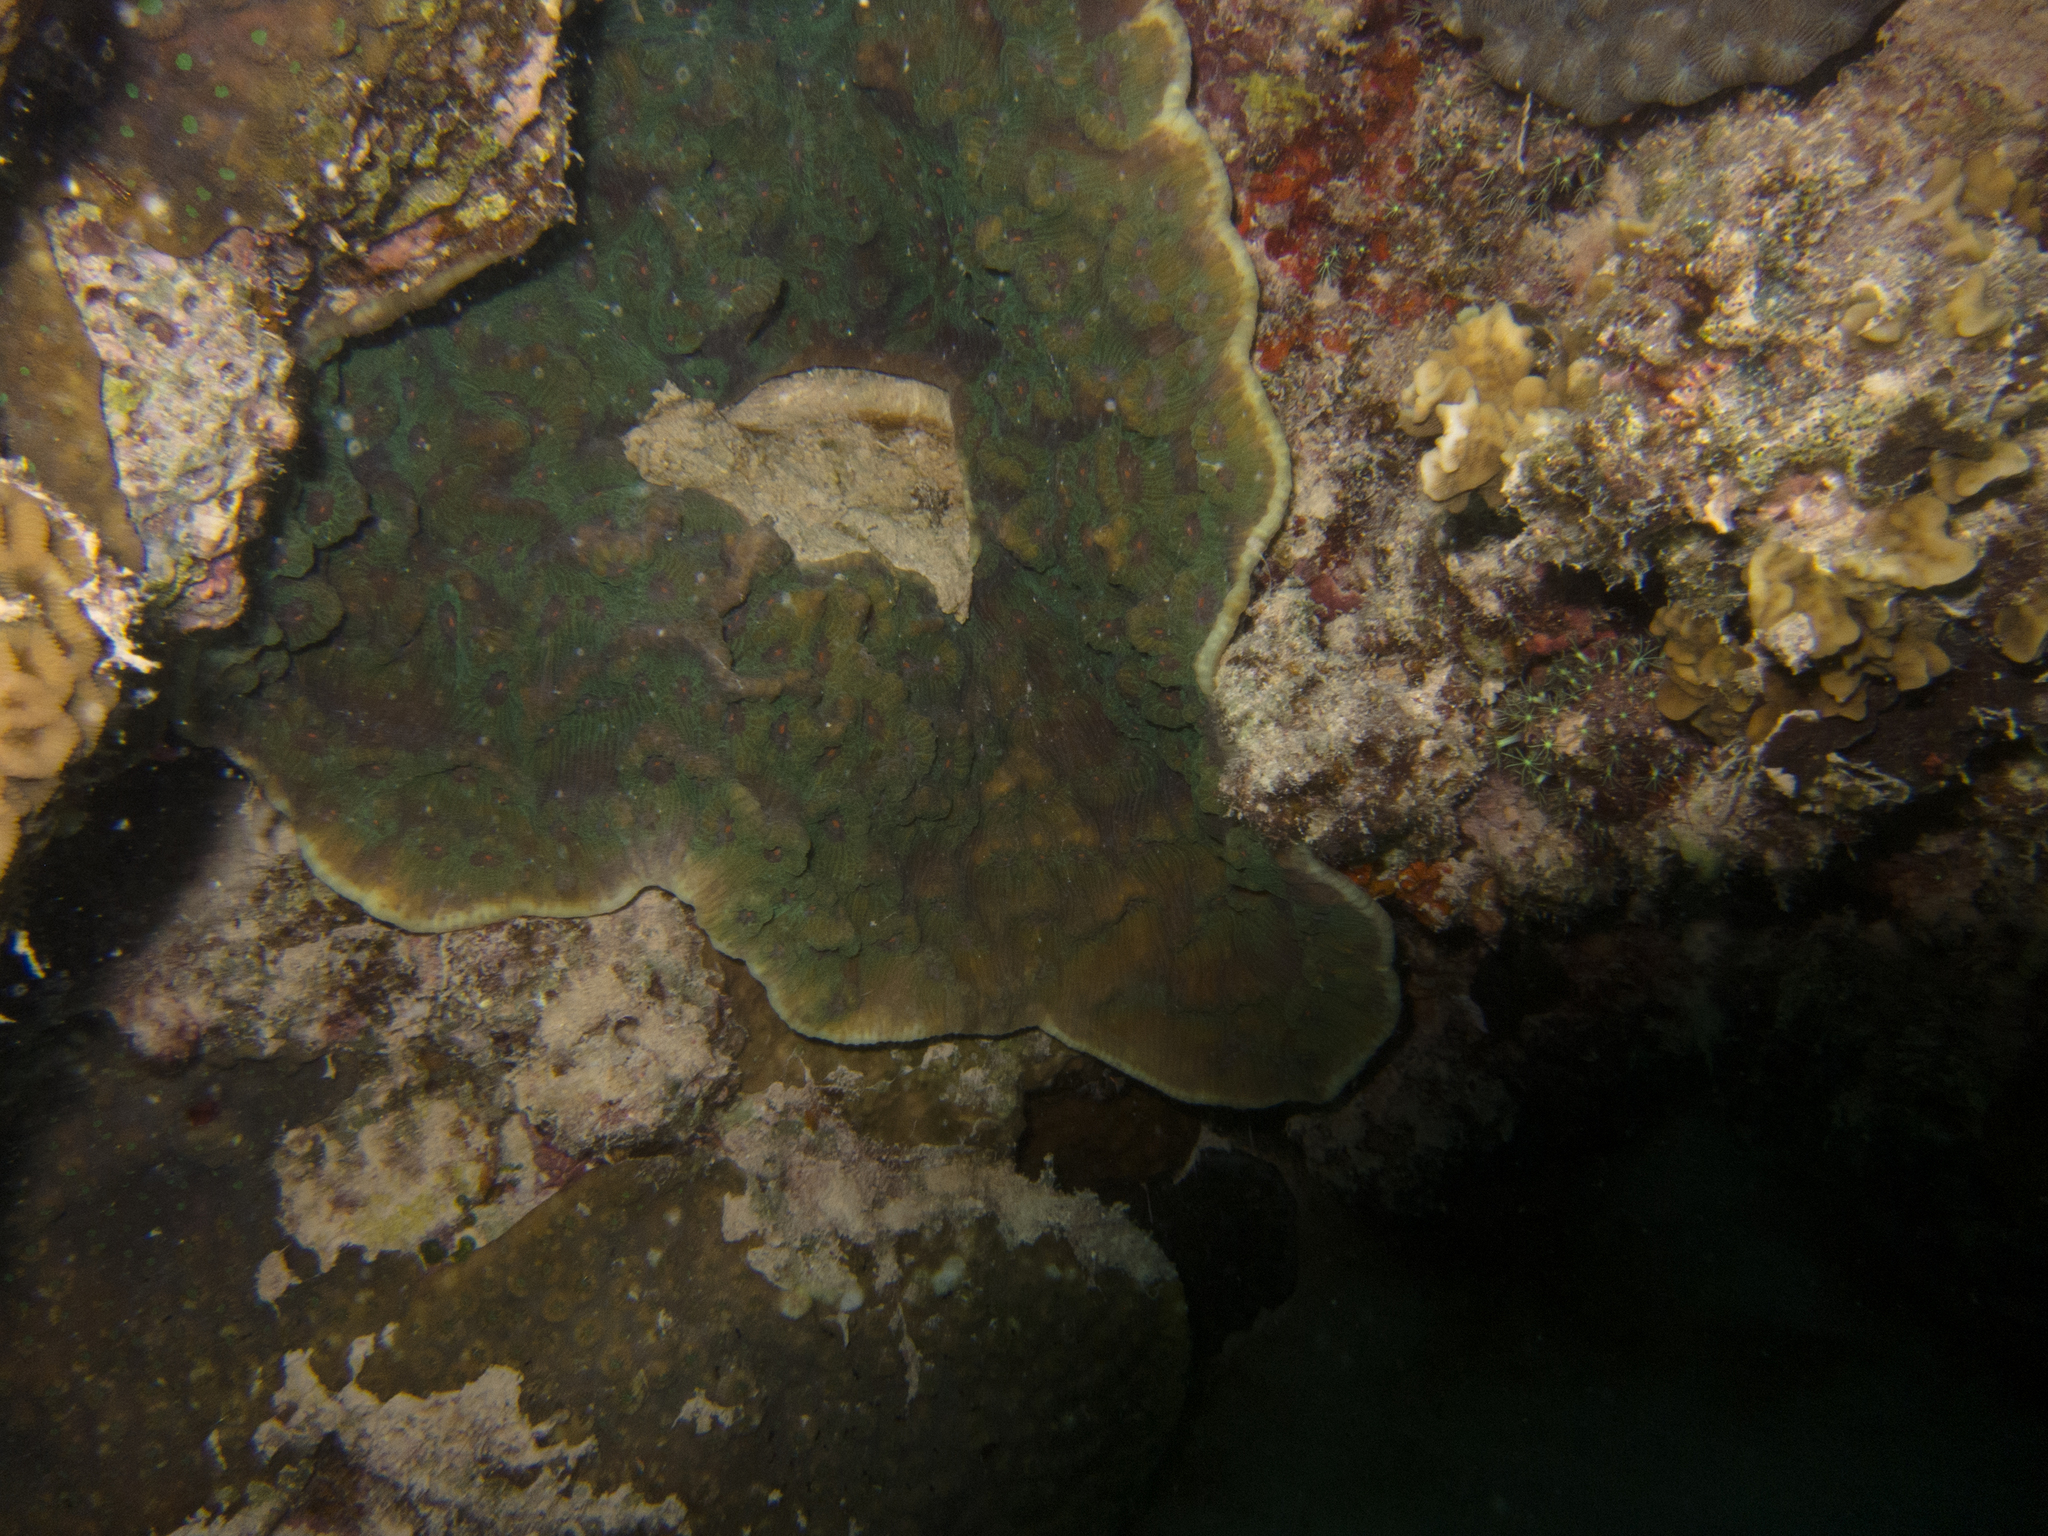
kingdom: Animalia
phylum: Cnidaria
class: Anthozoa
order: Scleractinia
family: Merulinidae
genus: Mycedium
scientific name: Mycedium elephantotus
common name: Chinese lettuce coral
